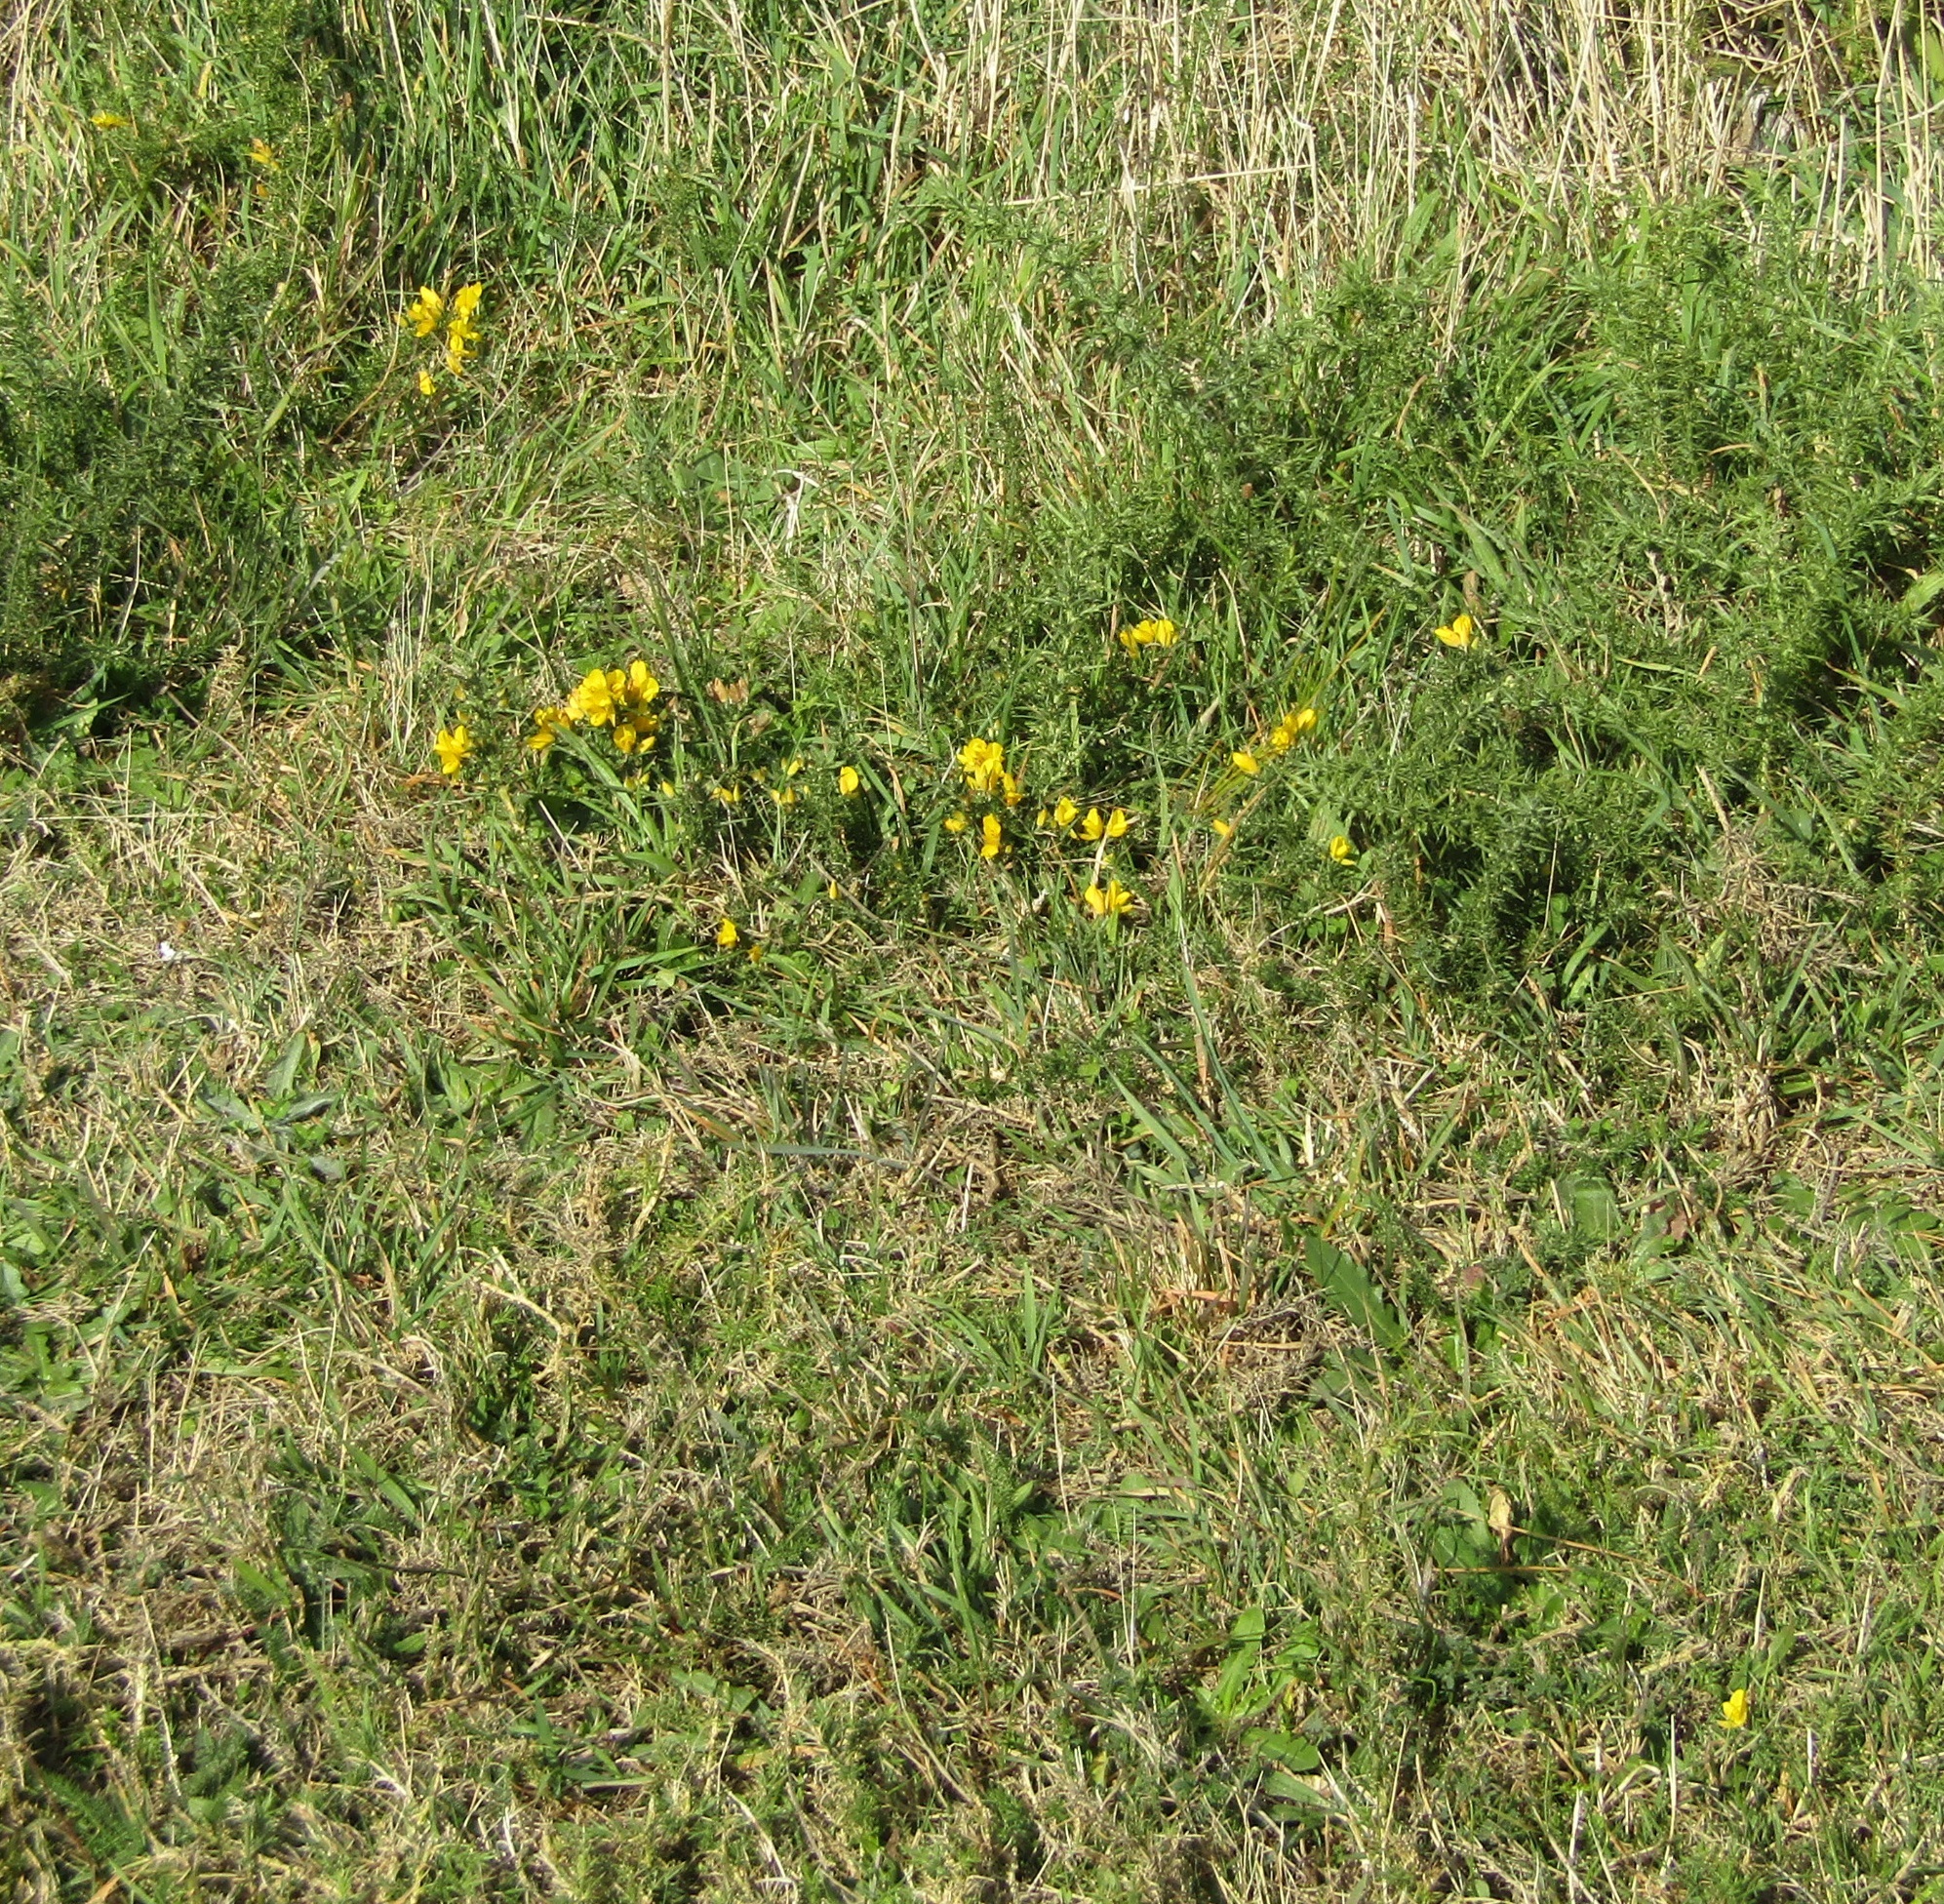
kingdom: Plantae
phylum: Tracheophyta
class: Magnoliopsida
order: Fabales
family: Fabaceae
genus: Ulex
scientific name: Ulex europaeus
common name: Common gorse
